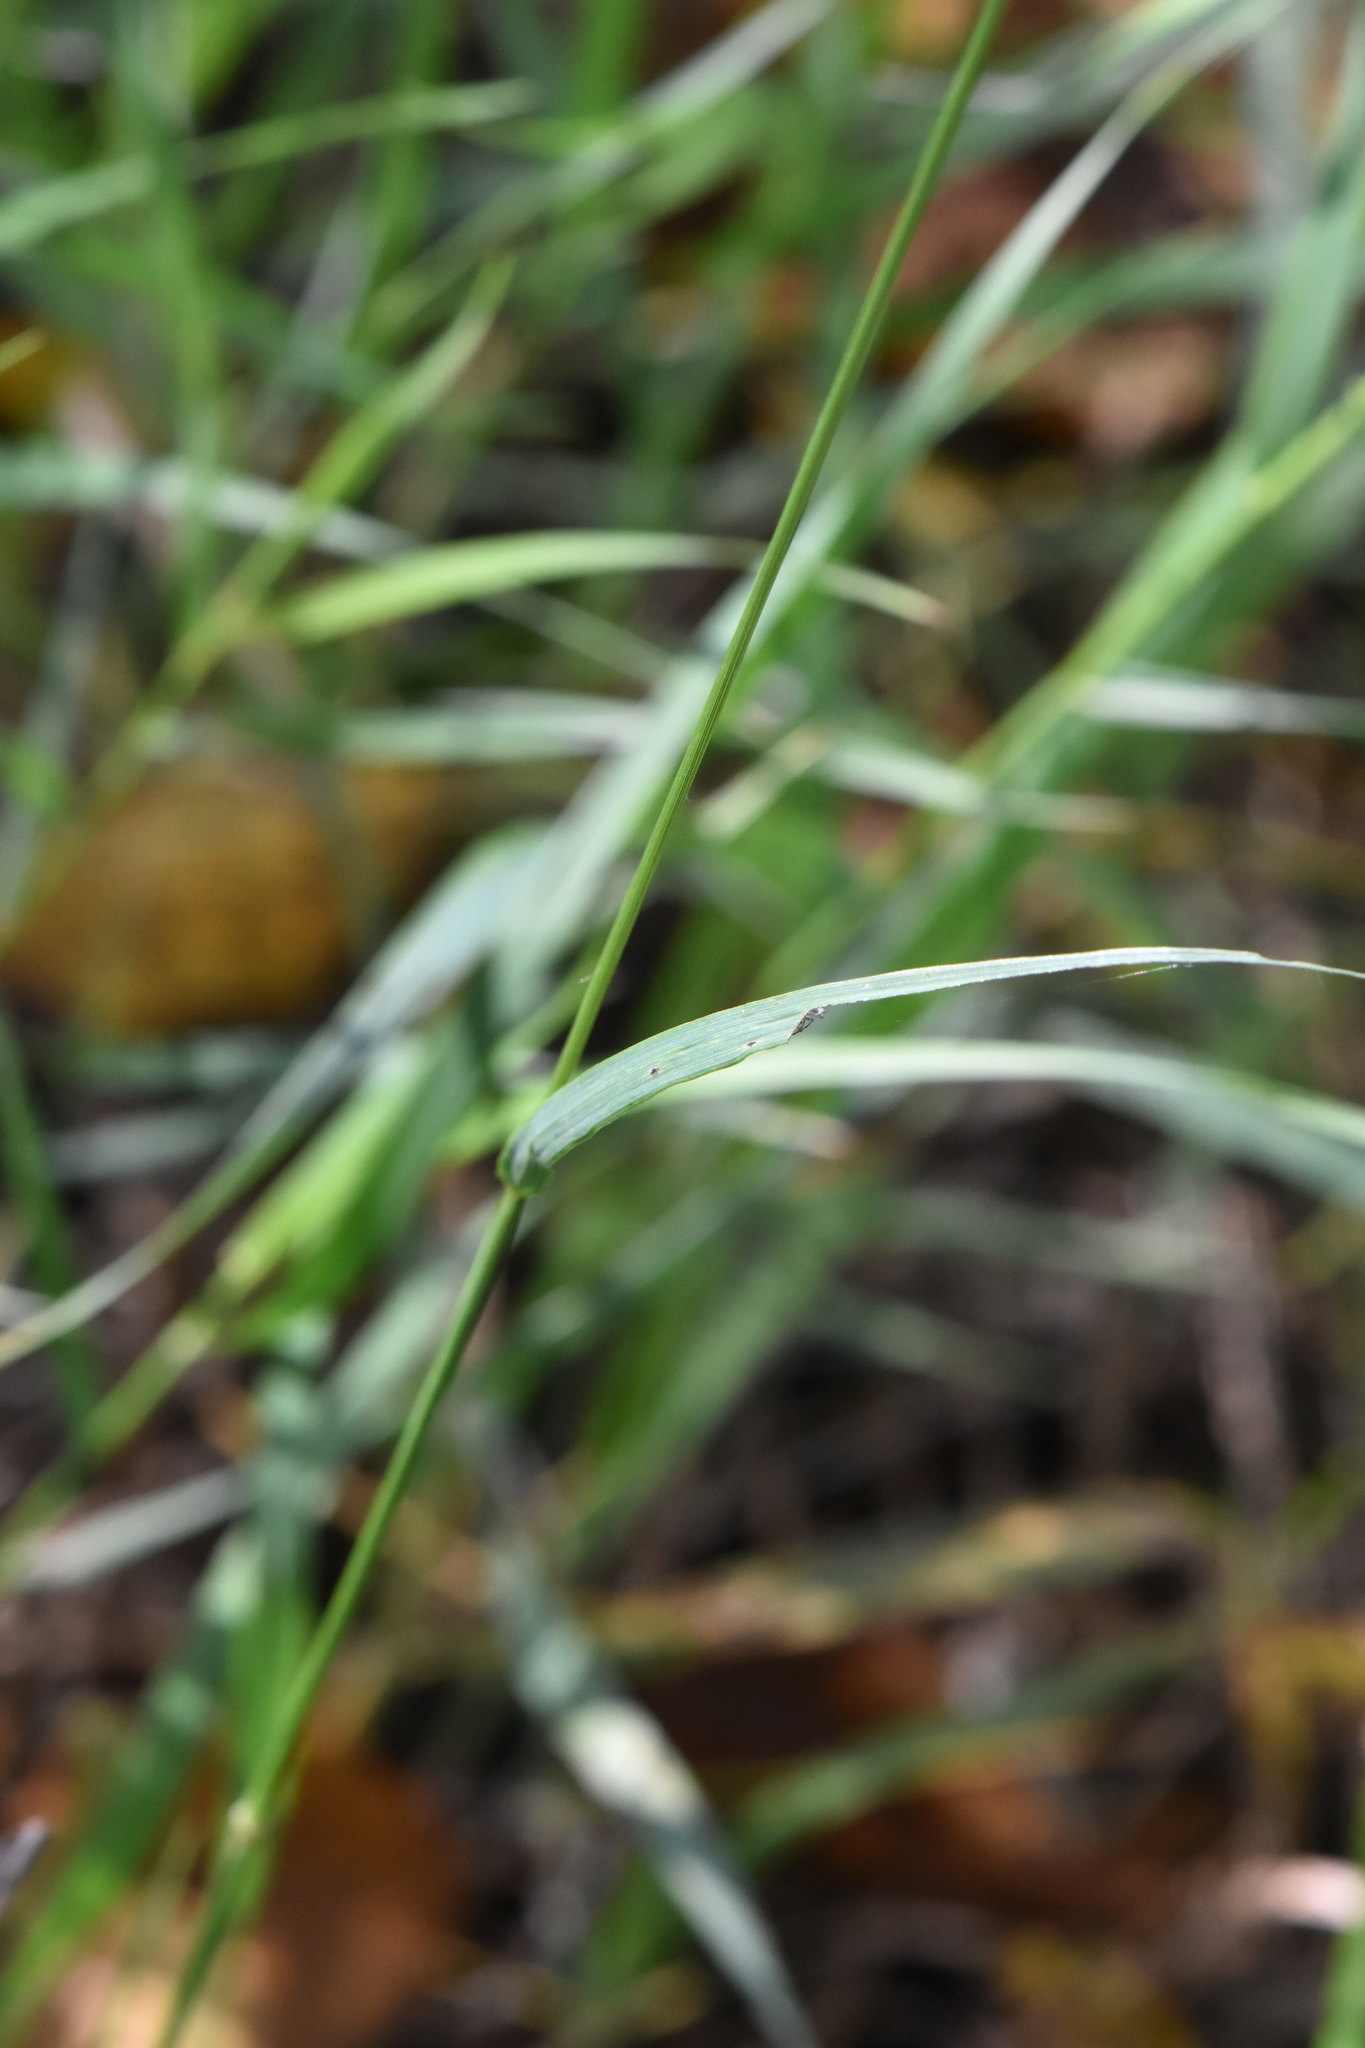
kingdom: Plantae
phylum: Tracheophyta
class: Liliopsida
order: Poales
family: Poaceae
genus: Bromus
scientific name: Bromus inermis
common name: Smooth brome
